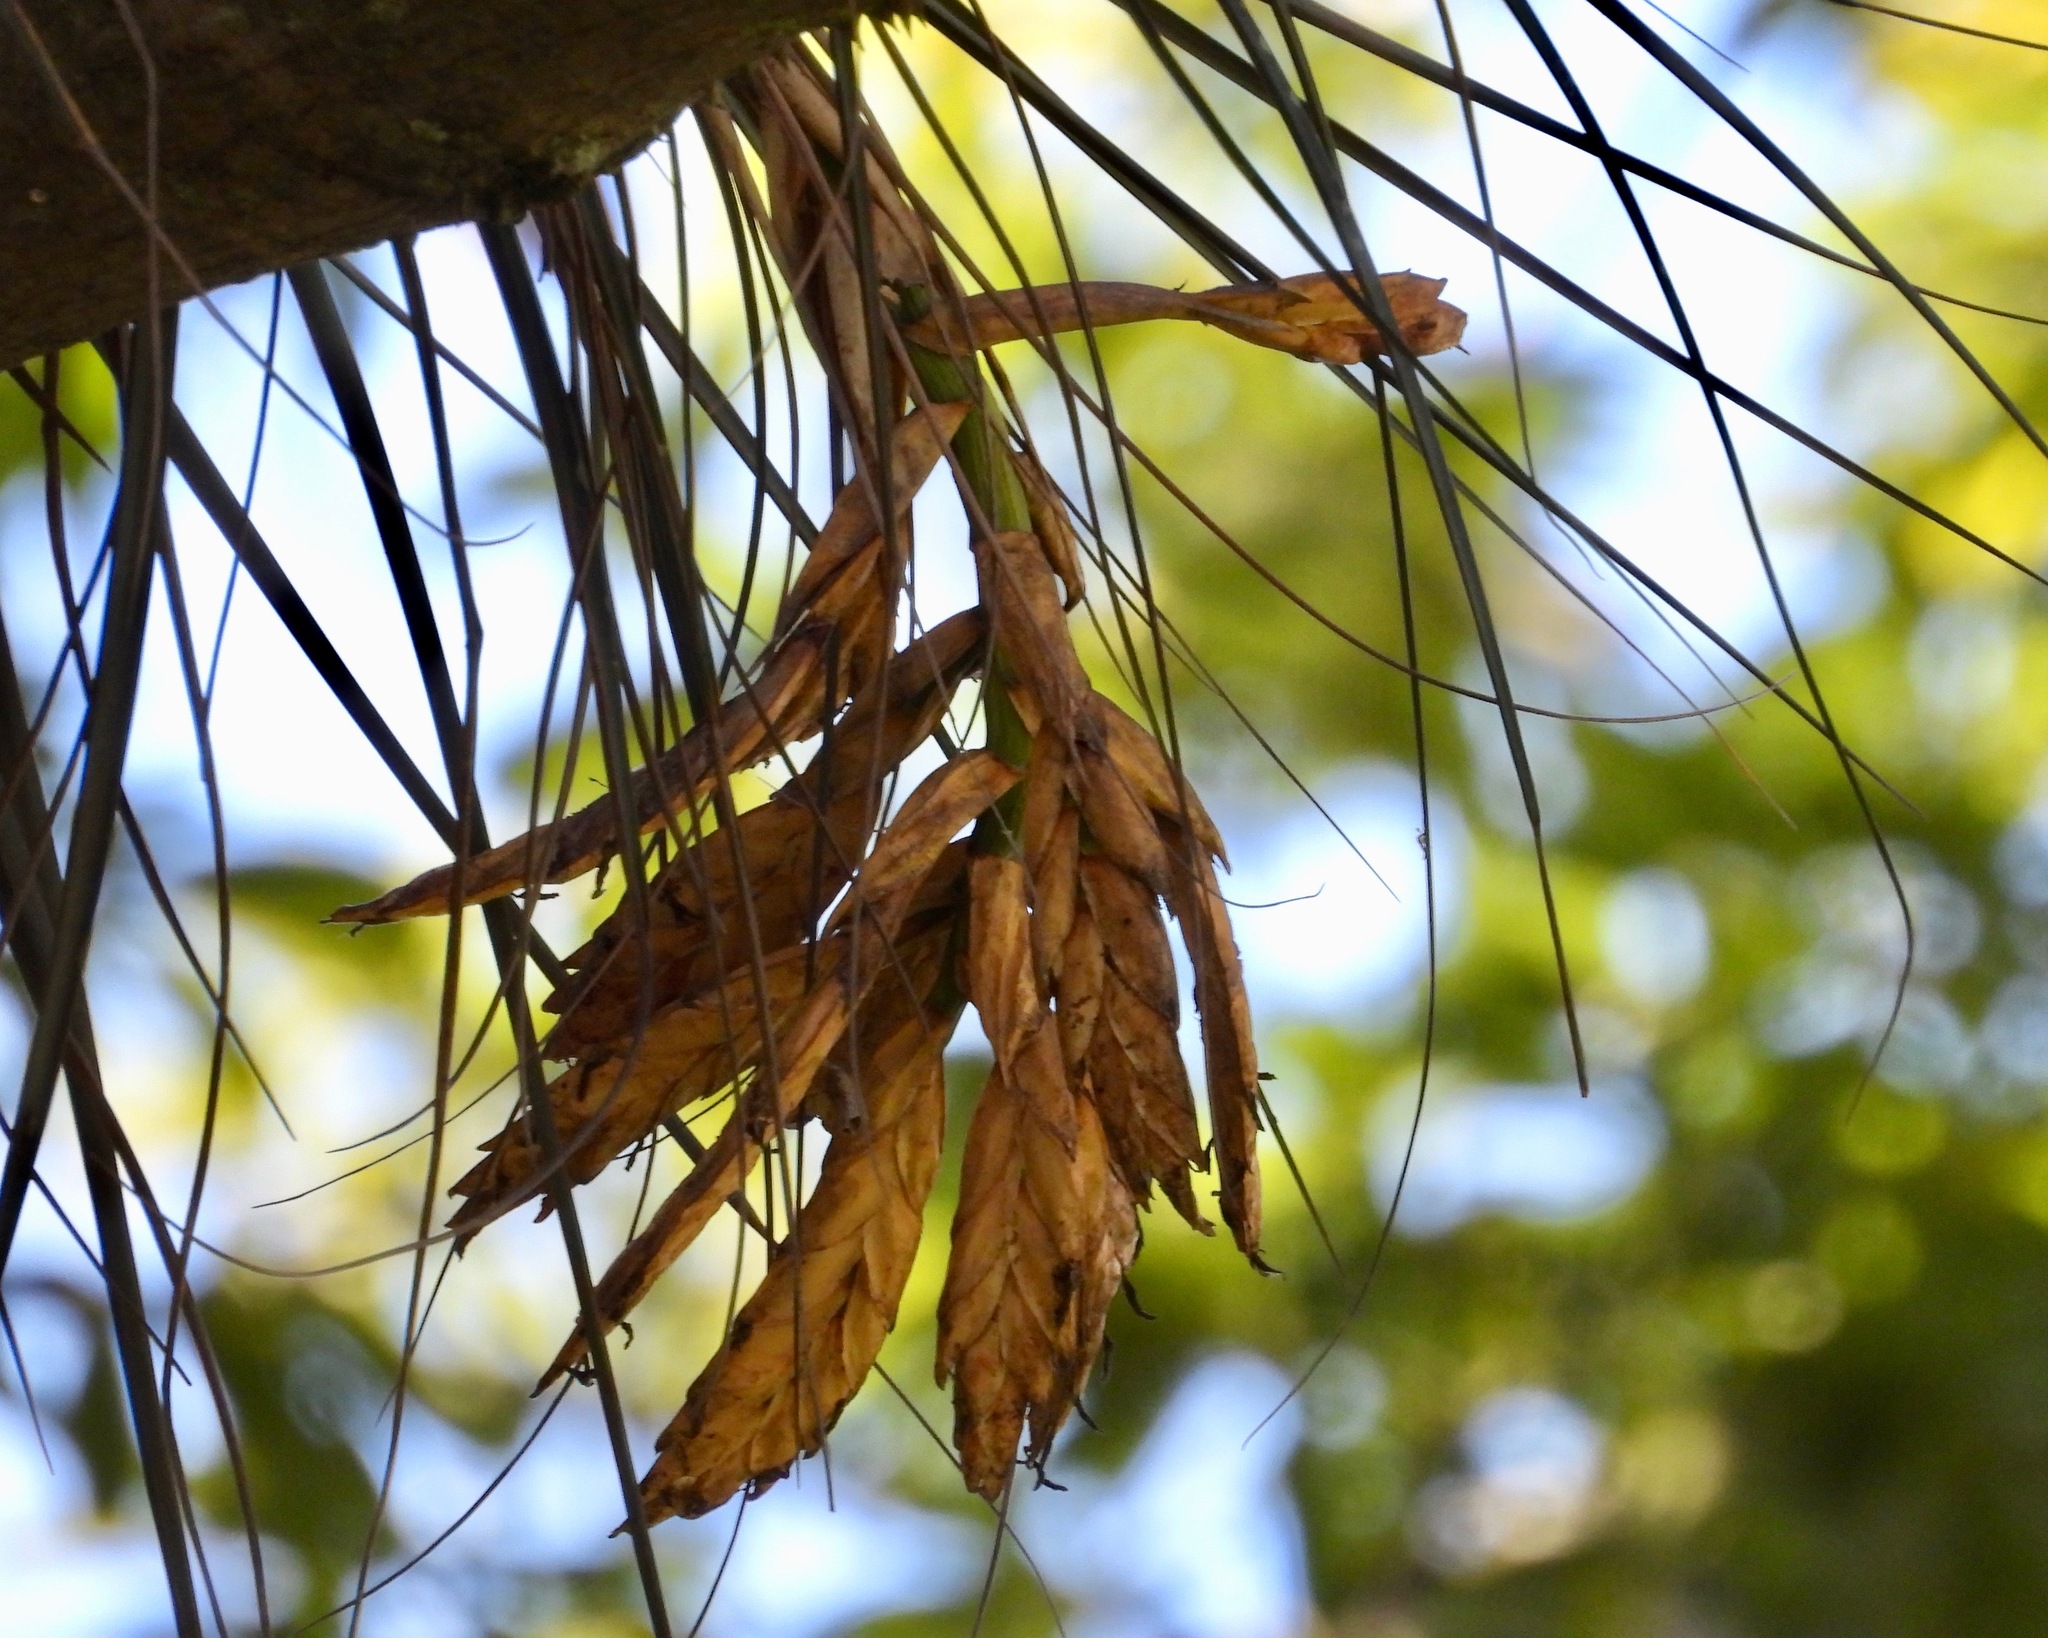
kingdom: Plantae
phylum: Tracheophyta
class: Liliopsida
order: Poales
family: Bromeliaceae
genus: Tillandsia
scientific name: Tillandsia fasciculata
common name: Giant airplant
